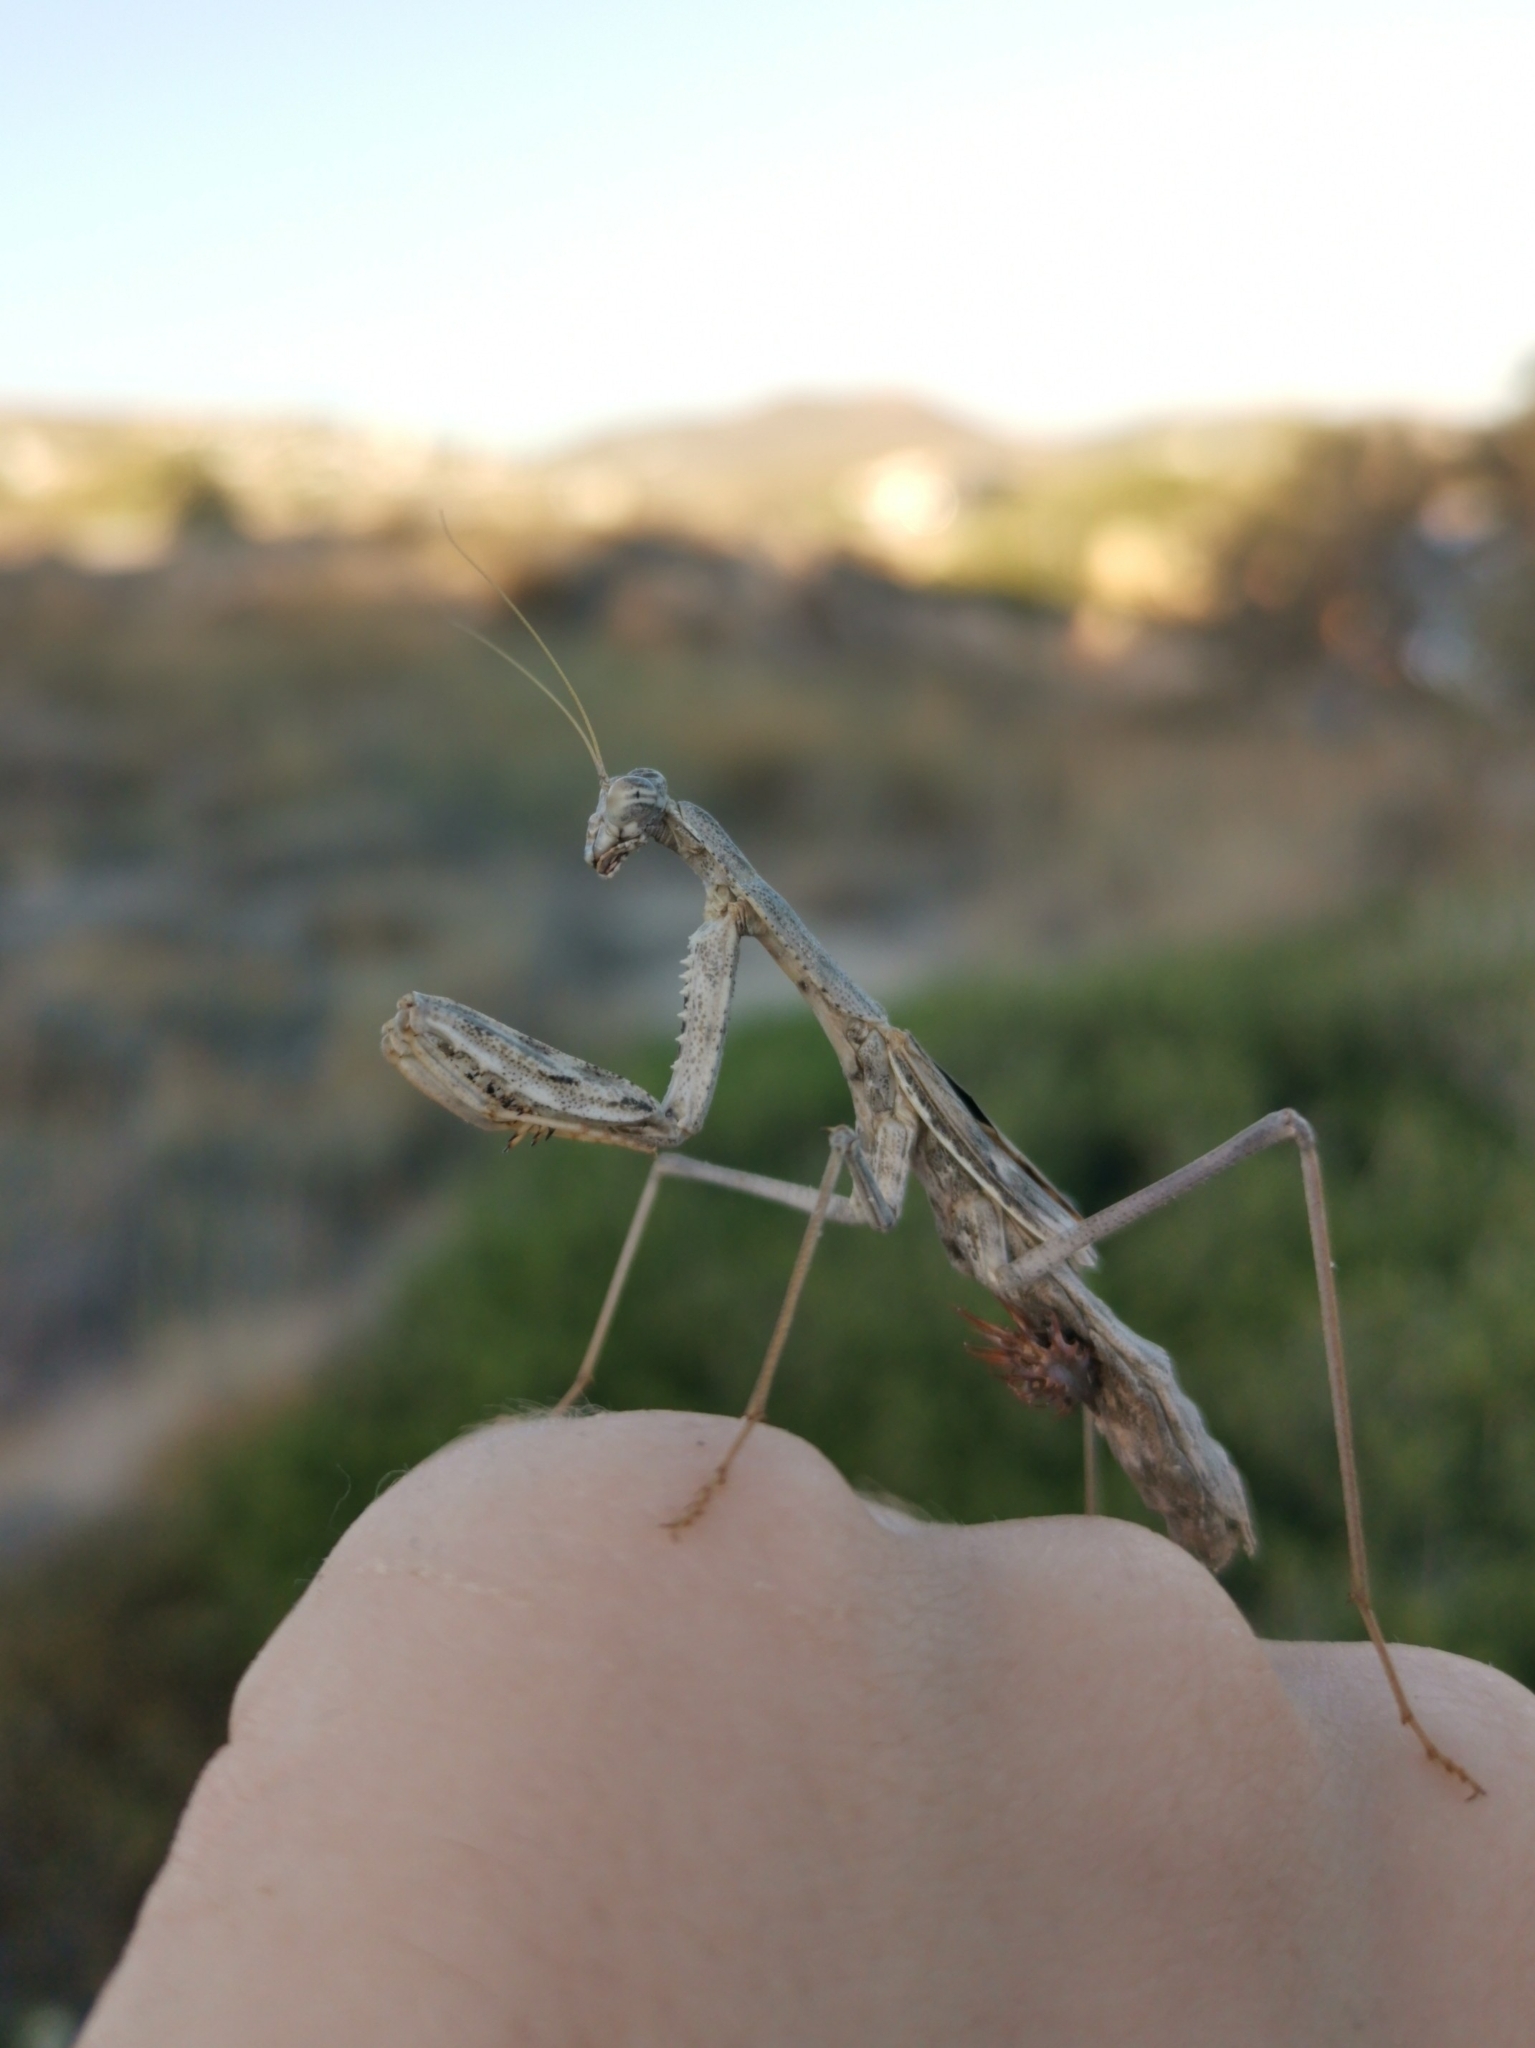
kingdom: Animalia
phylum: Arthropoda
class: Insecta
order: Mantodea
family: Rivetinidae
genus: Rivetina
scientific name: Rivetina balcanica
